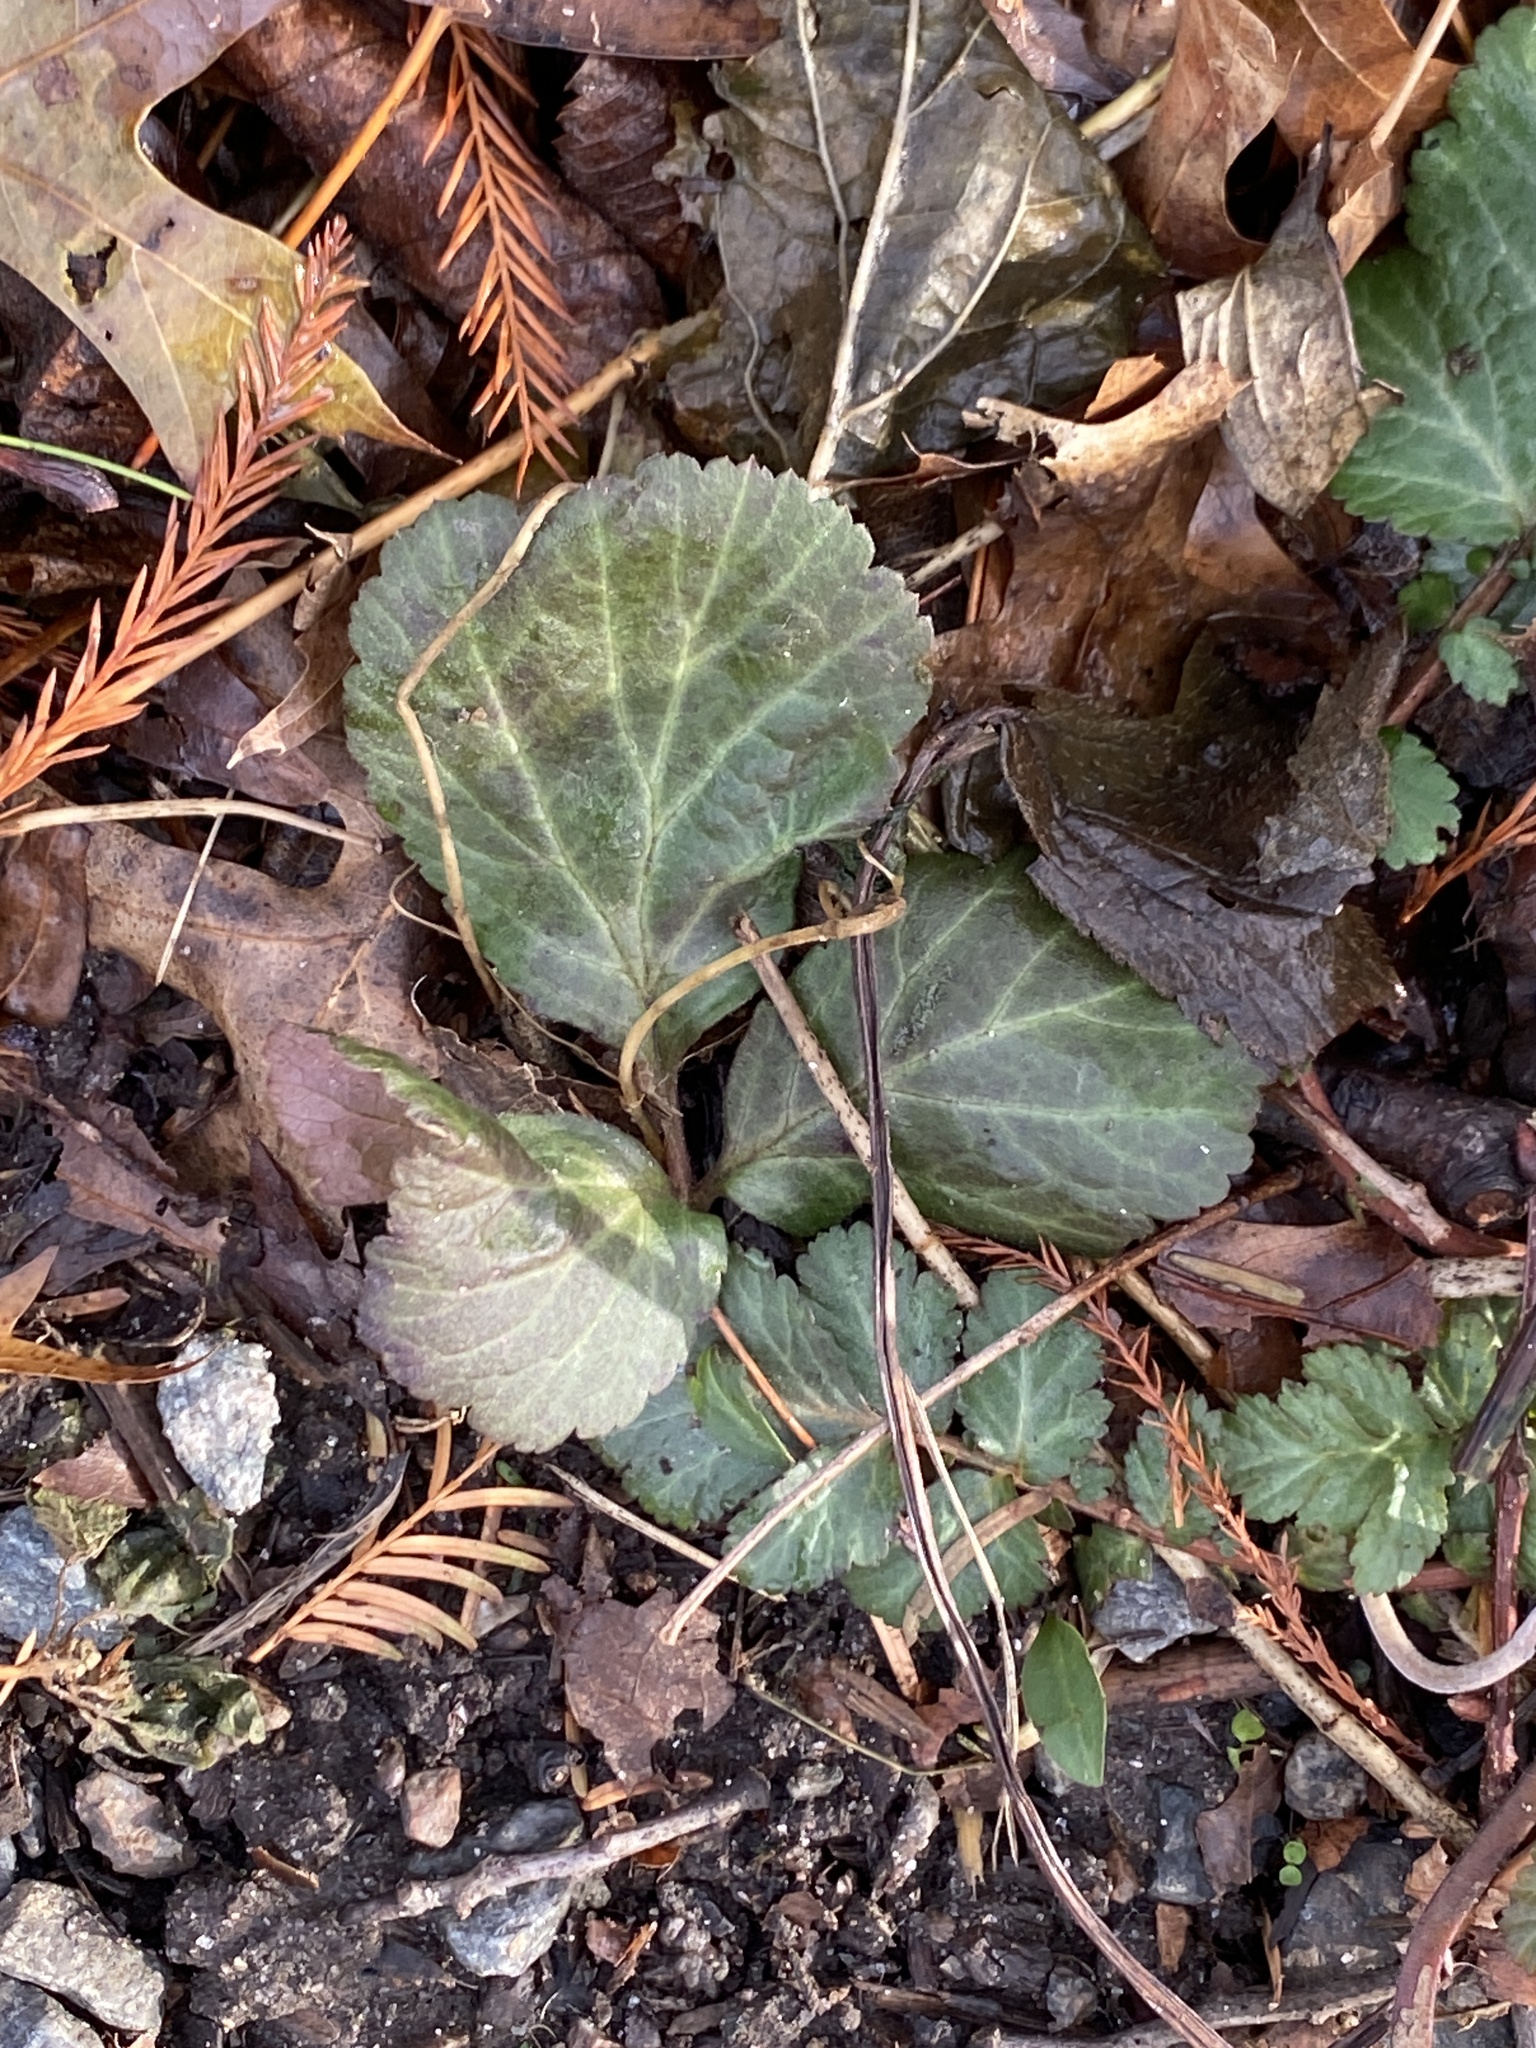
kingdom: Plantae
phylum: Tracheophyta
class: Magnoliopsida
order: Rosales
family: Rosaceae
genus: Geum
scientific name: Geum canadense
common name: White avens
